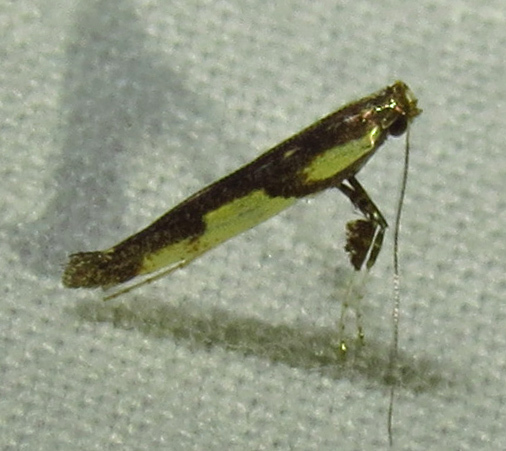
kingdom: Animalia
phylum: Arthropoda
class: Insecta
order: Lepidoptera
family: Gracillariidae
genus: Caloptilia
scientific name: Caloptilia blandella
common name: Walnut caloptilia moth
